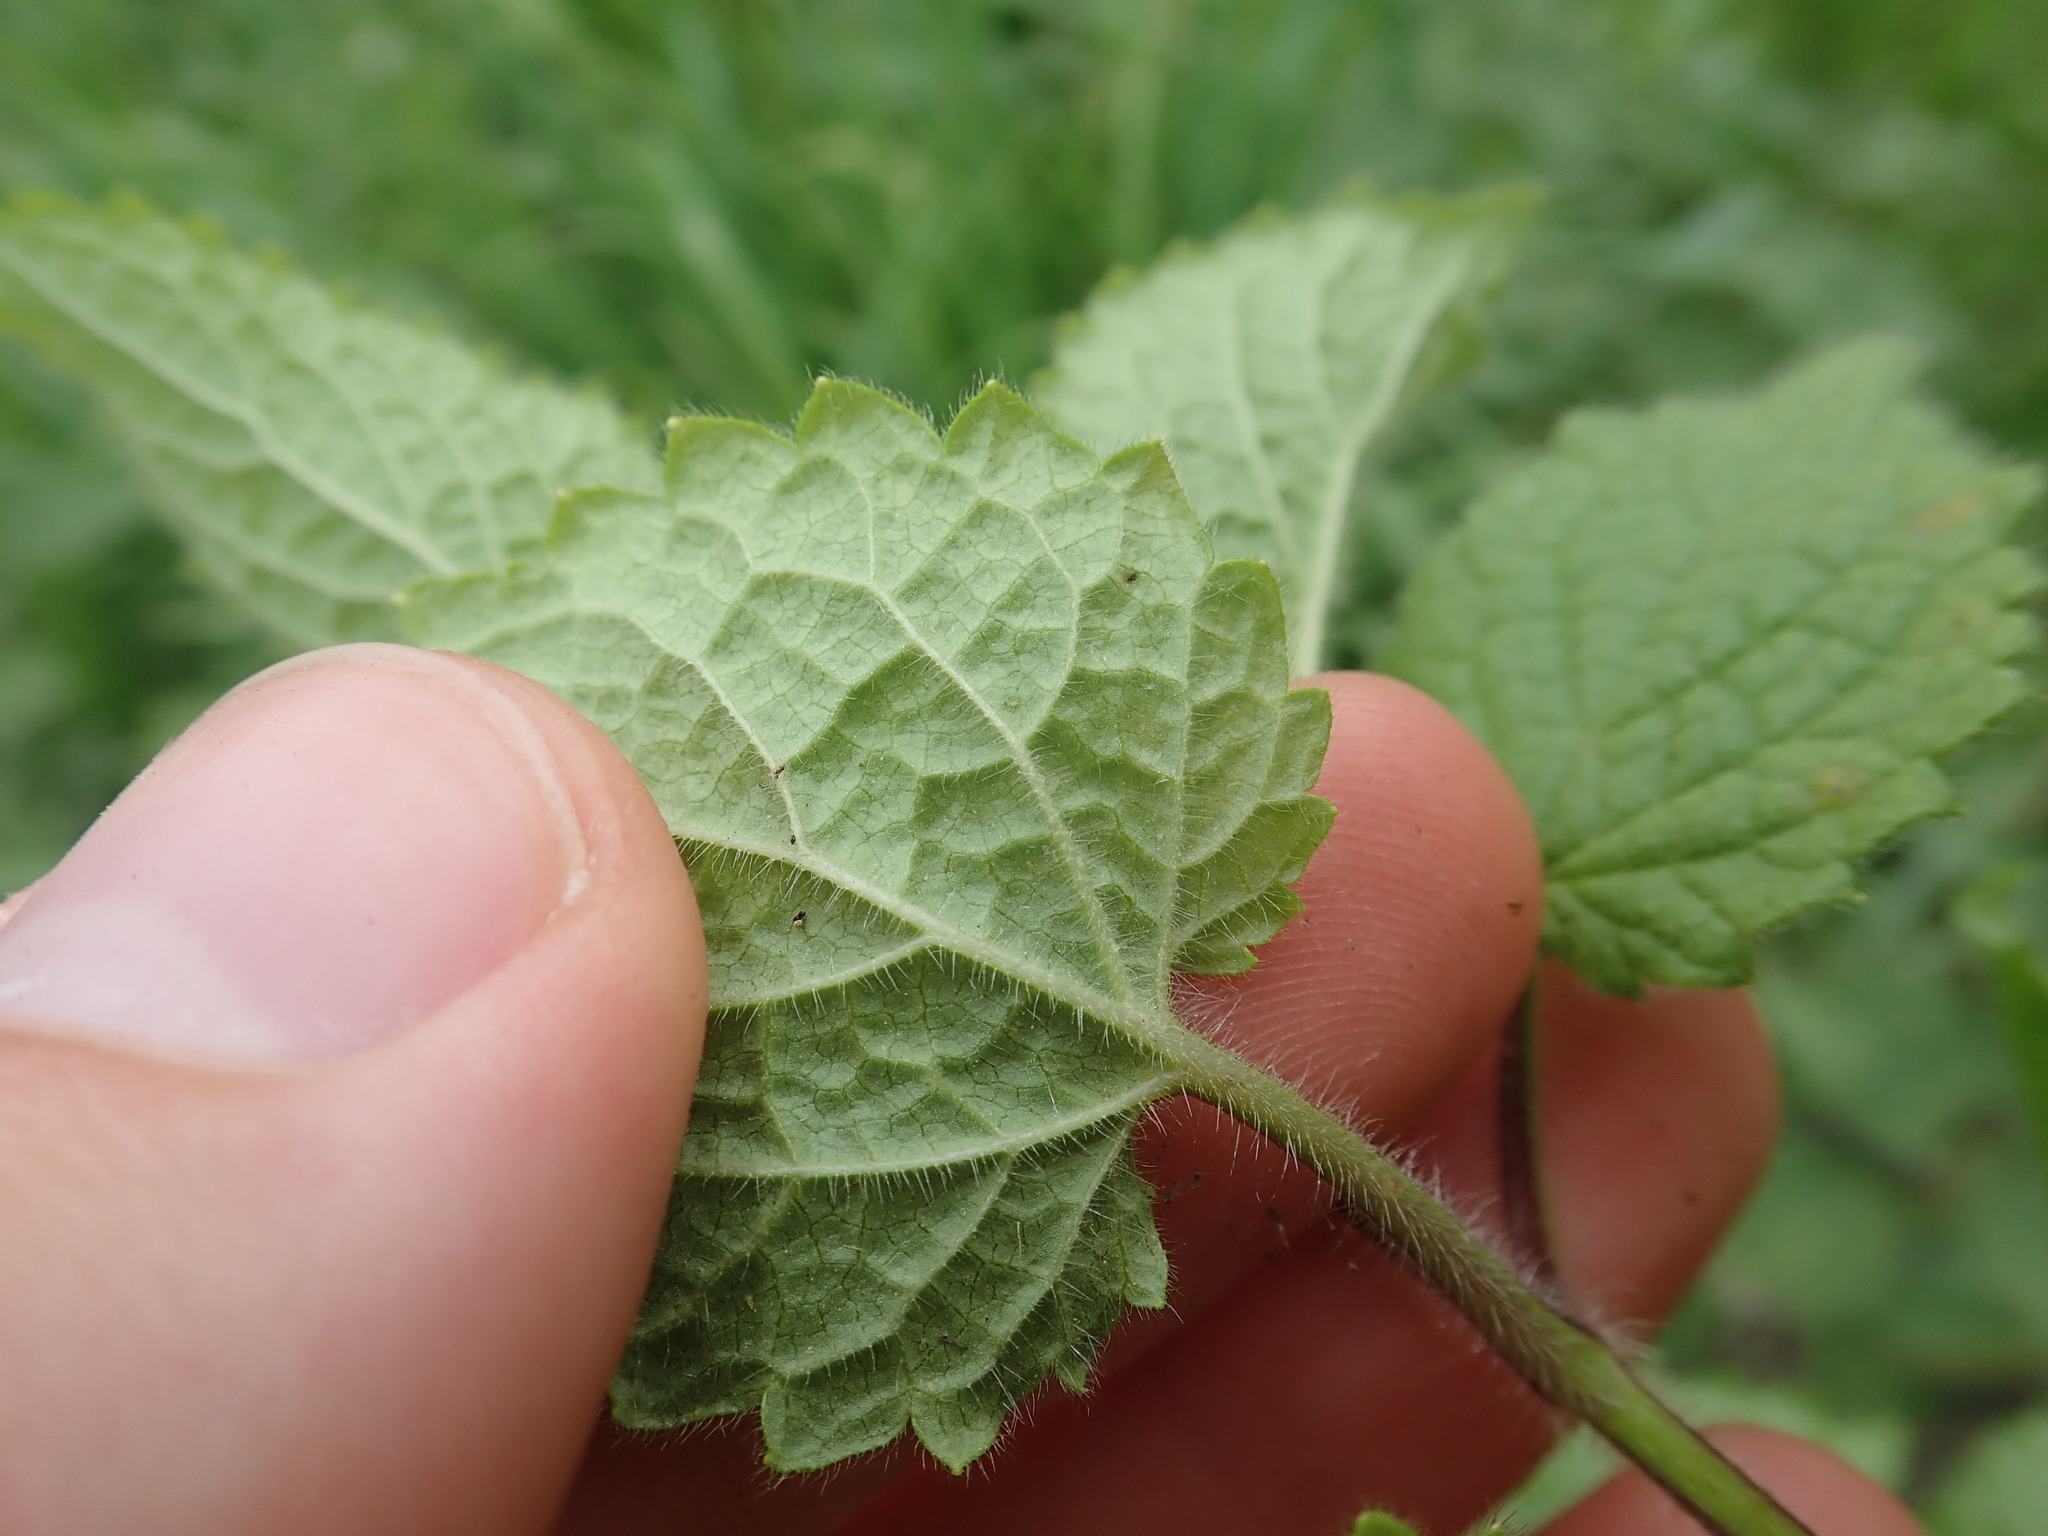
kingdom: Plantae
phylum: Tracheophyta
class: Magnoliopsida
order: Lamiales
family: Lamiaceae
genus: Stachys
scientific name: Stachys sylvatica
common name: Hedge woundwort
